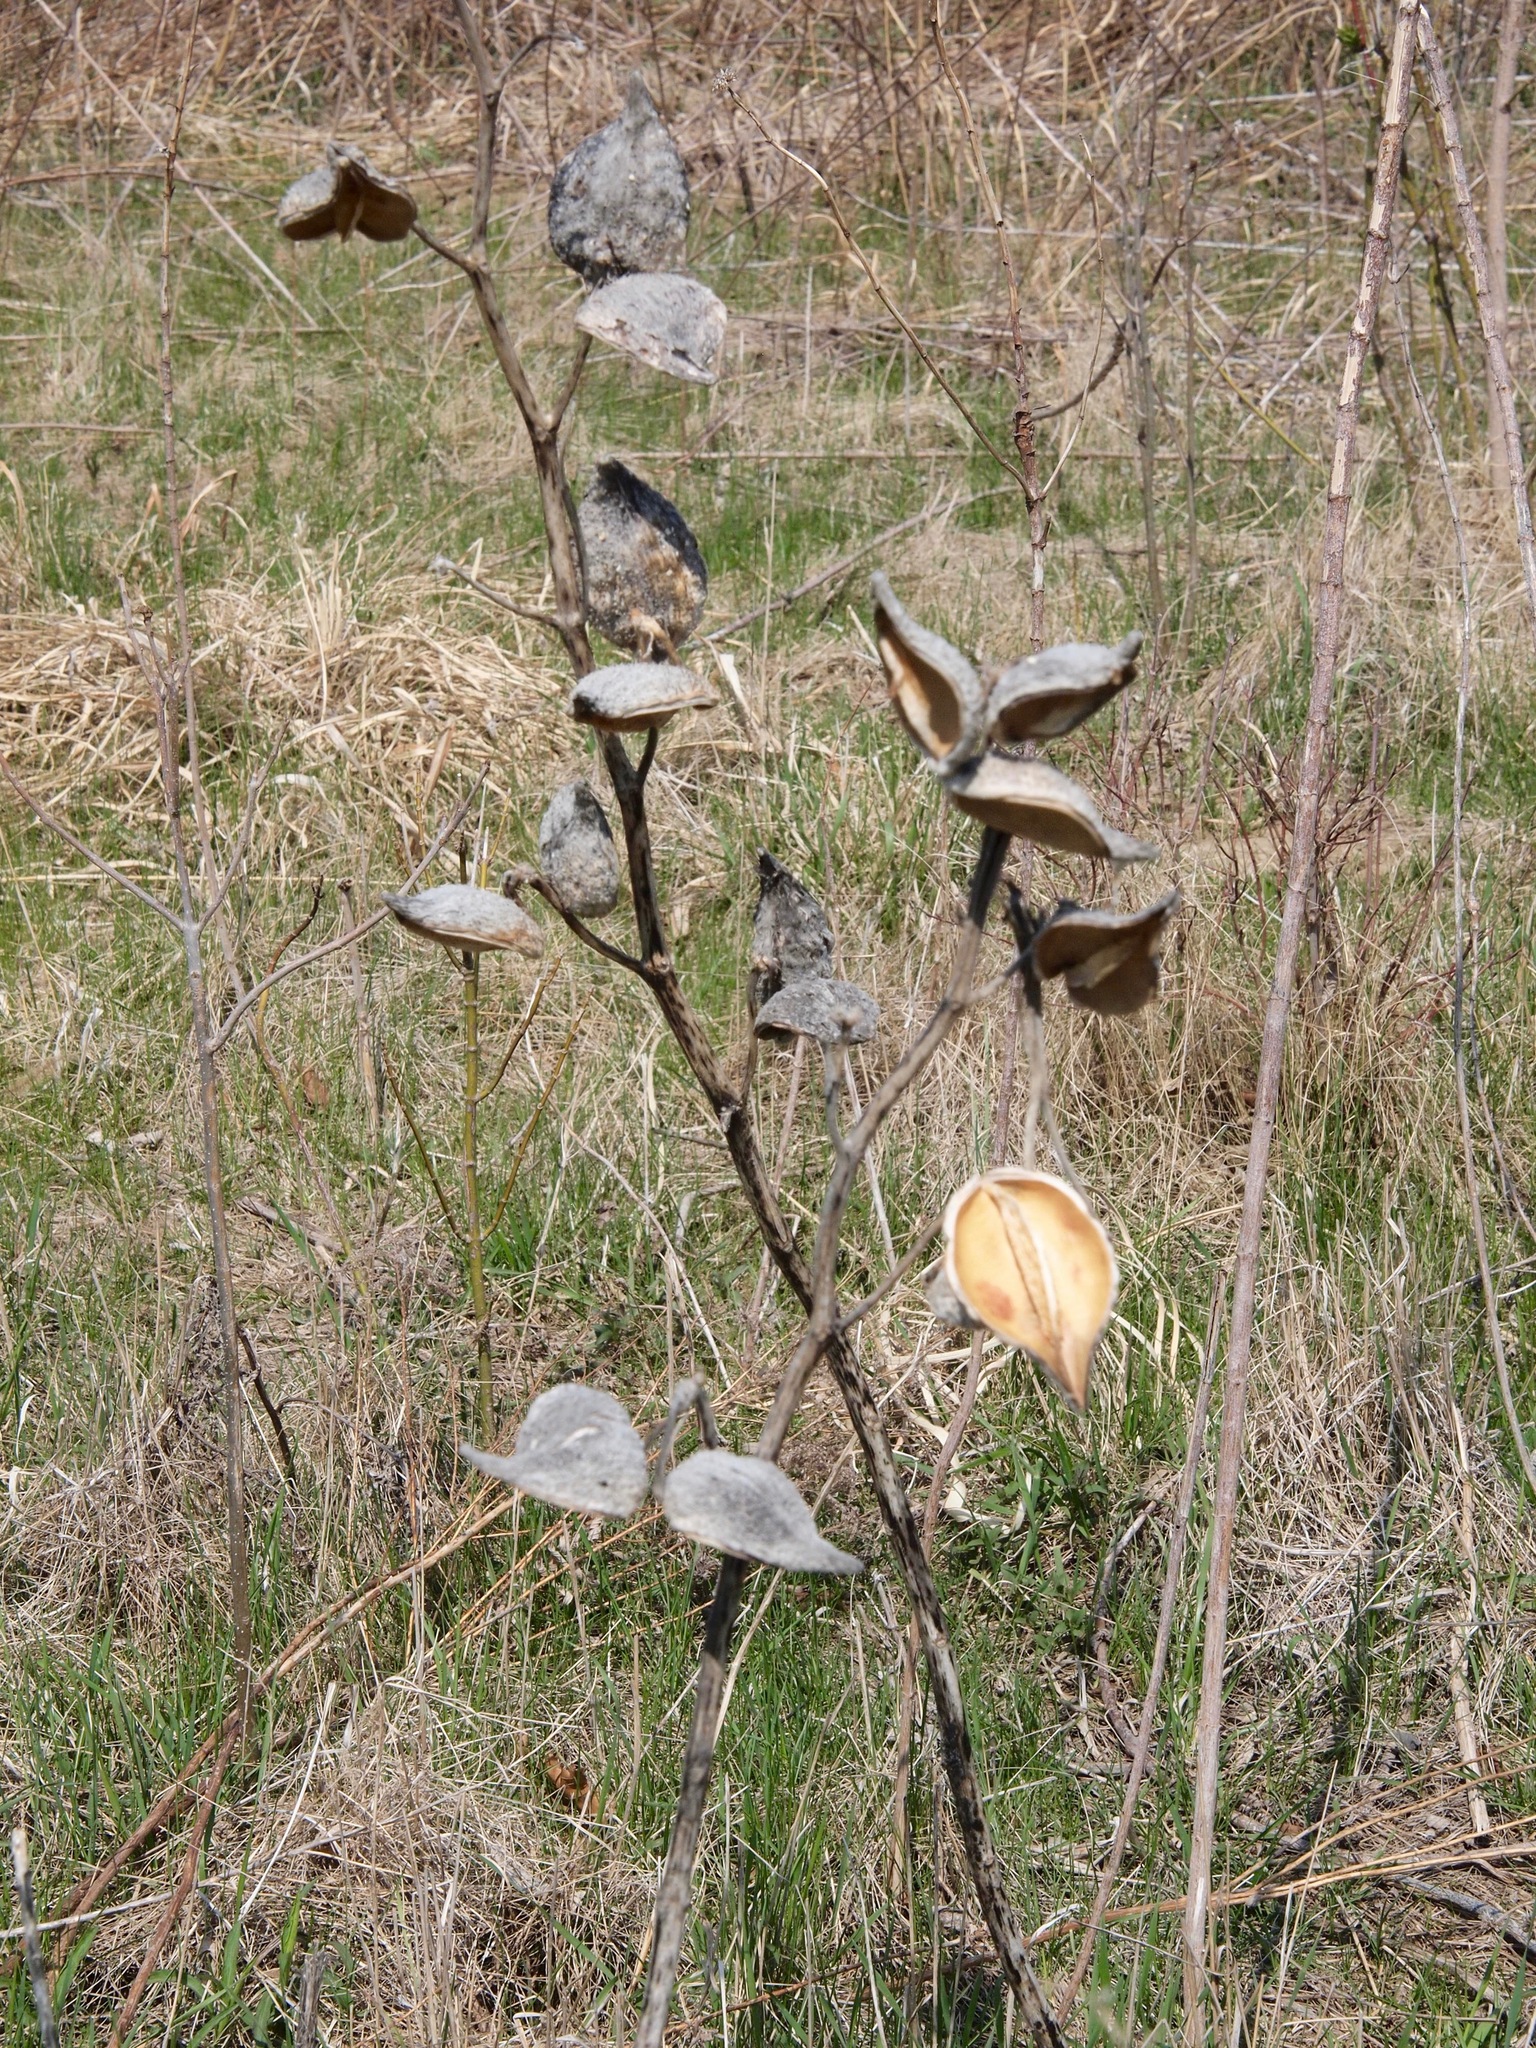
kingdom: Plantae
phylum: Tracheophyta
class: Magnoliopsida
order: Gentianales
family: Apocynaceae
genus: Asclepias
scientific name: Asclepias
